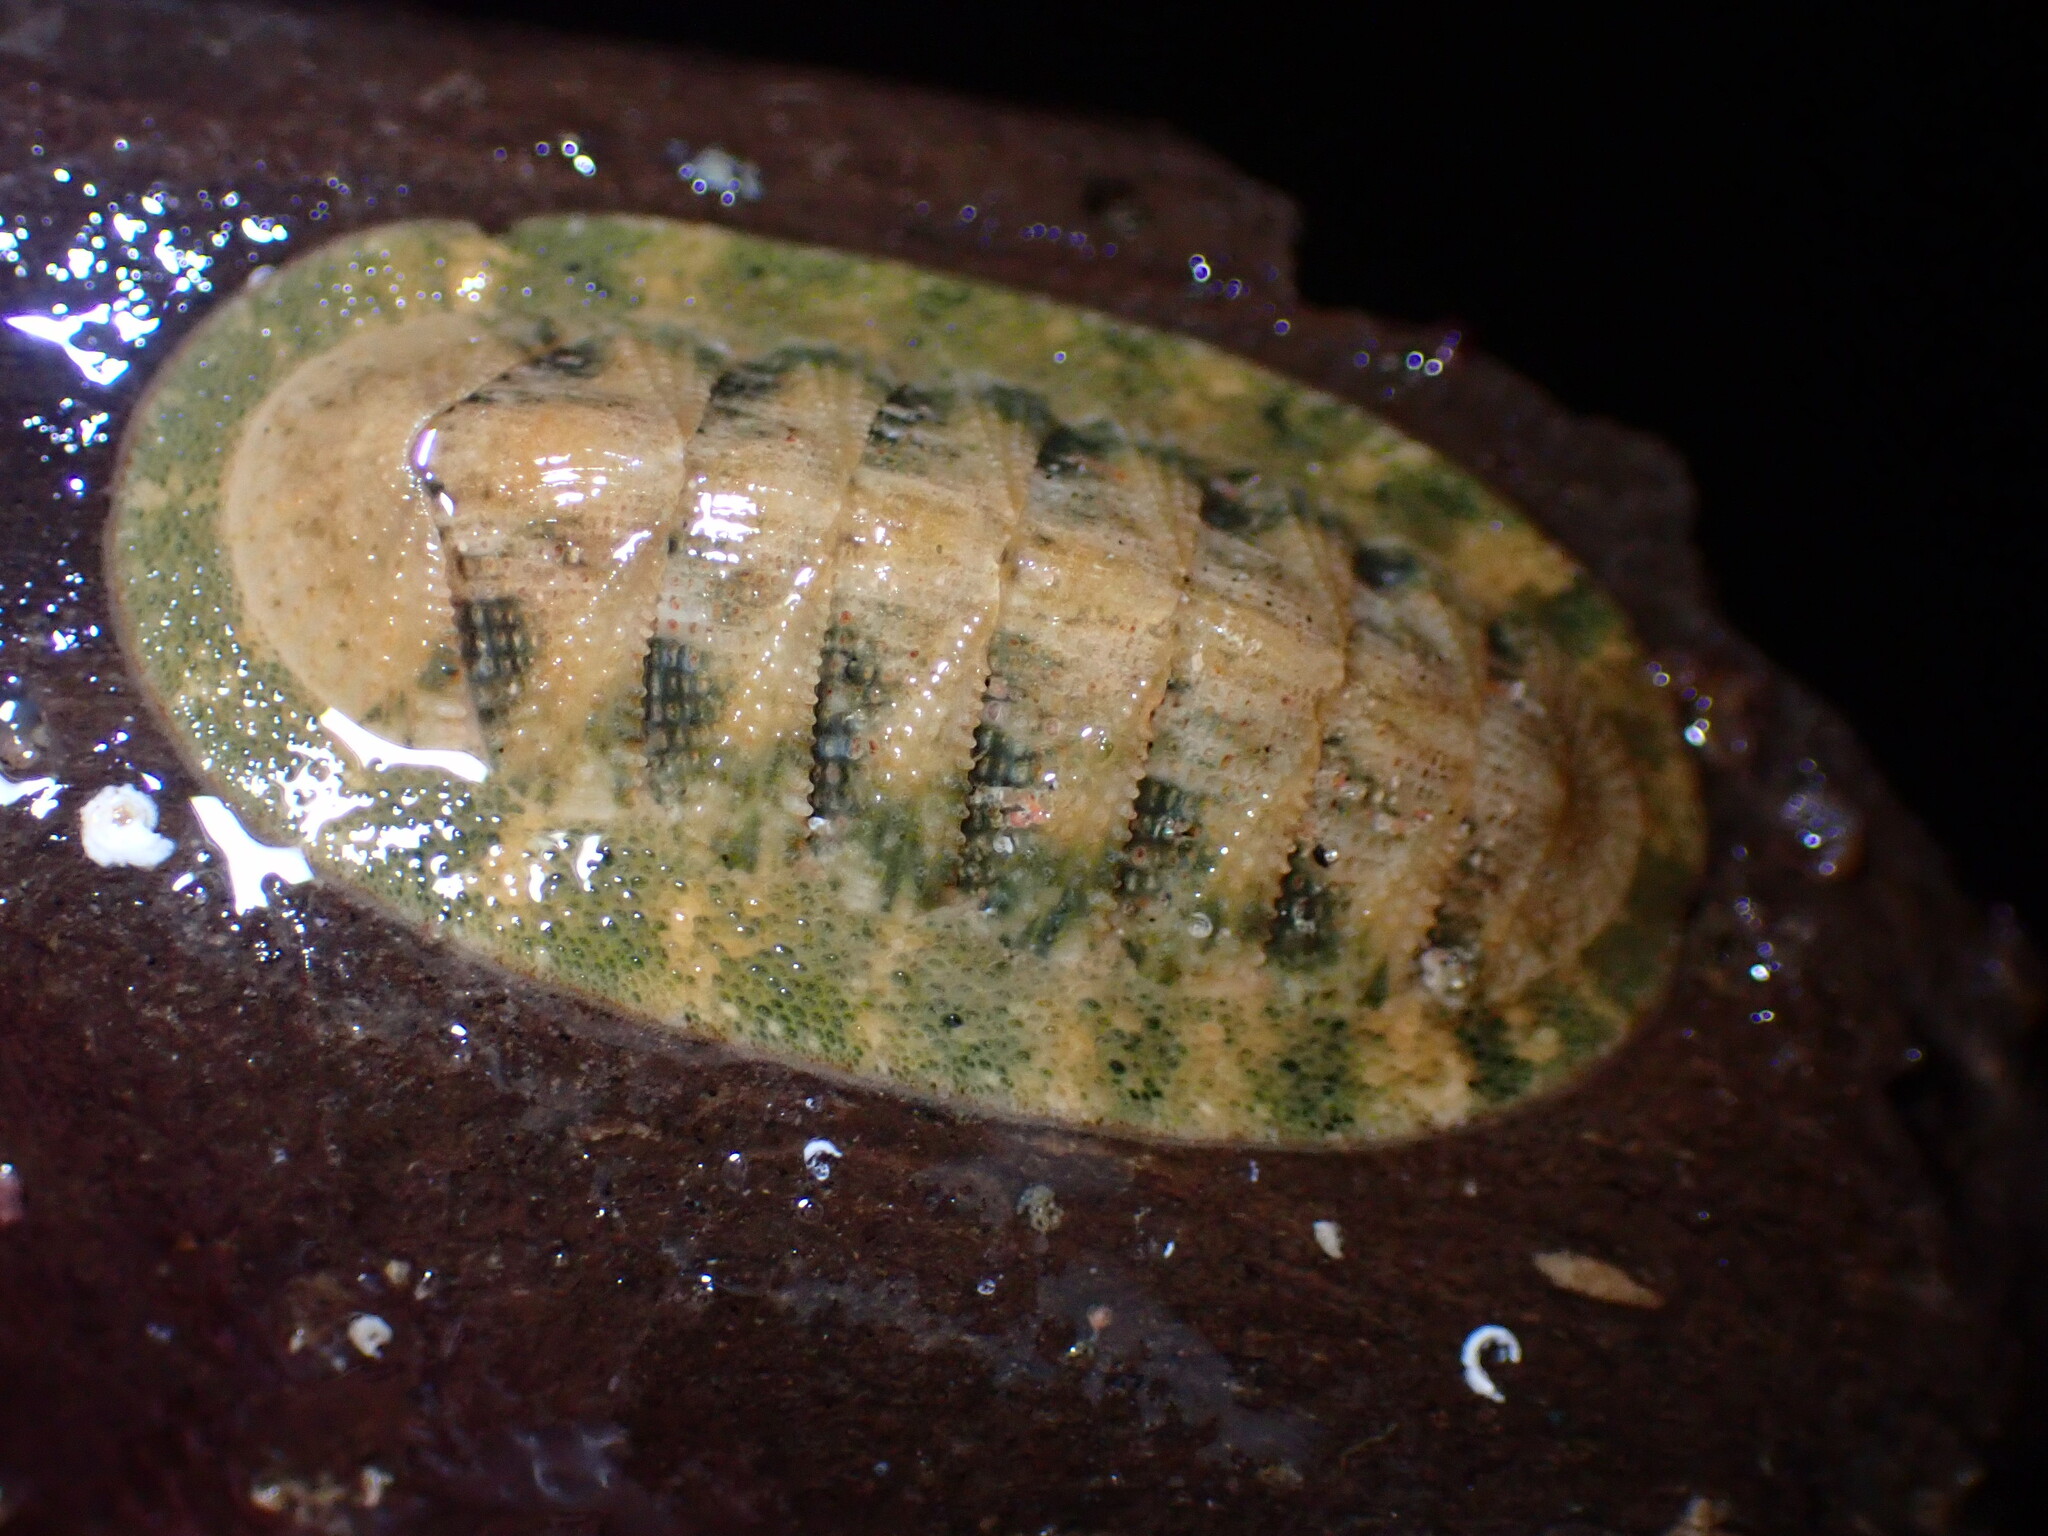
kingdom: Animalia
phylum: Mollusca
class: Polyplacophora
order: Chitonida
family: Ischnochitonidae
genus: Lepidozona
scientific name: Lepidozona pectinulata
